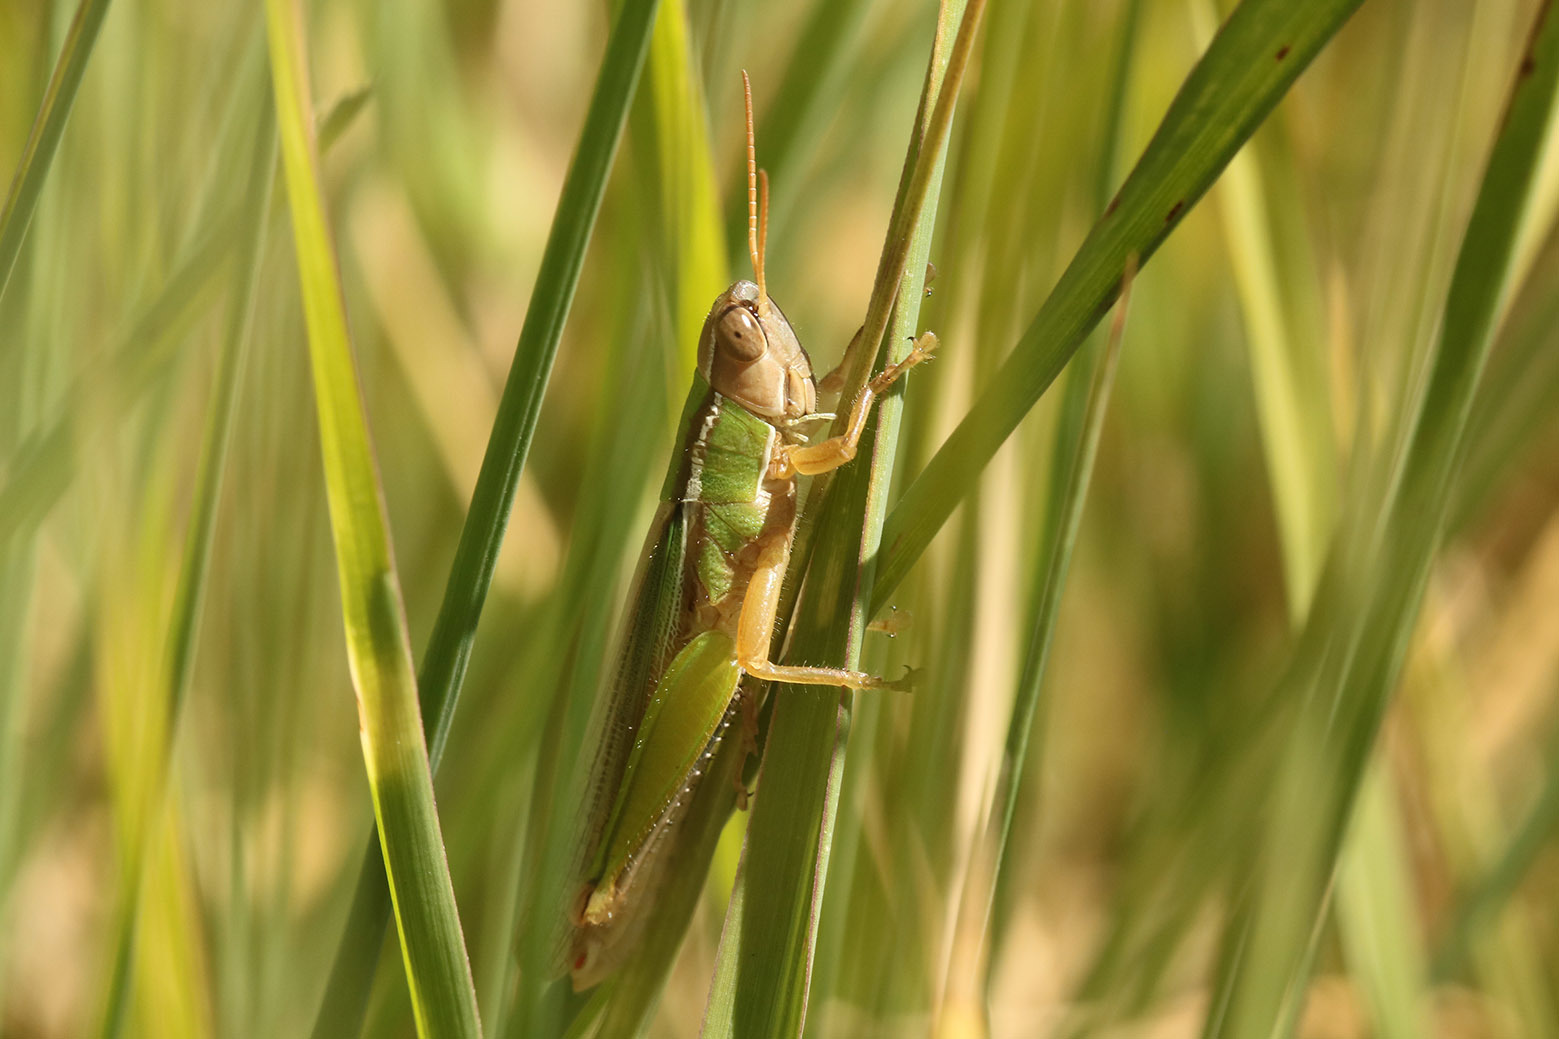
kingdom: Animalia
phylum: Arthropoda
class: Insecta
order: Orthoptera
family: Acrididae
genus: Aleuas
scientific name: Aleuas lineatus
